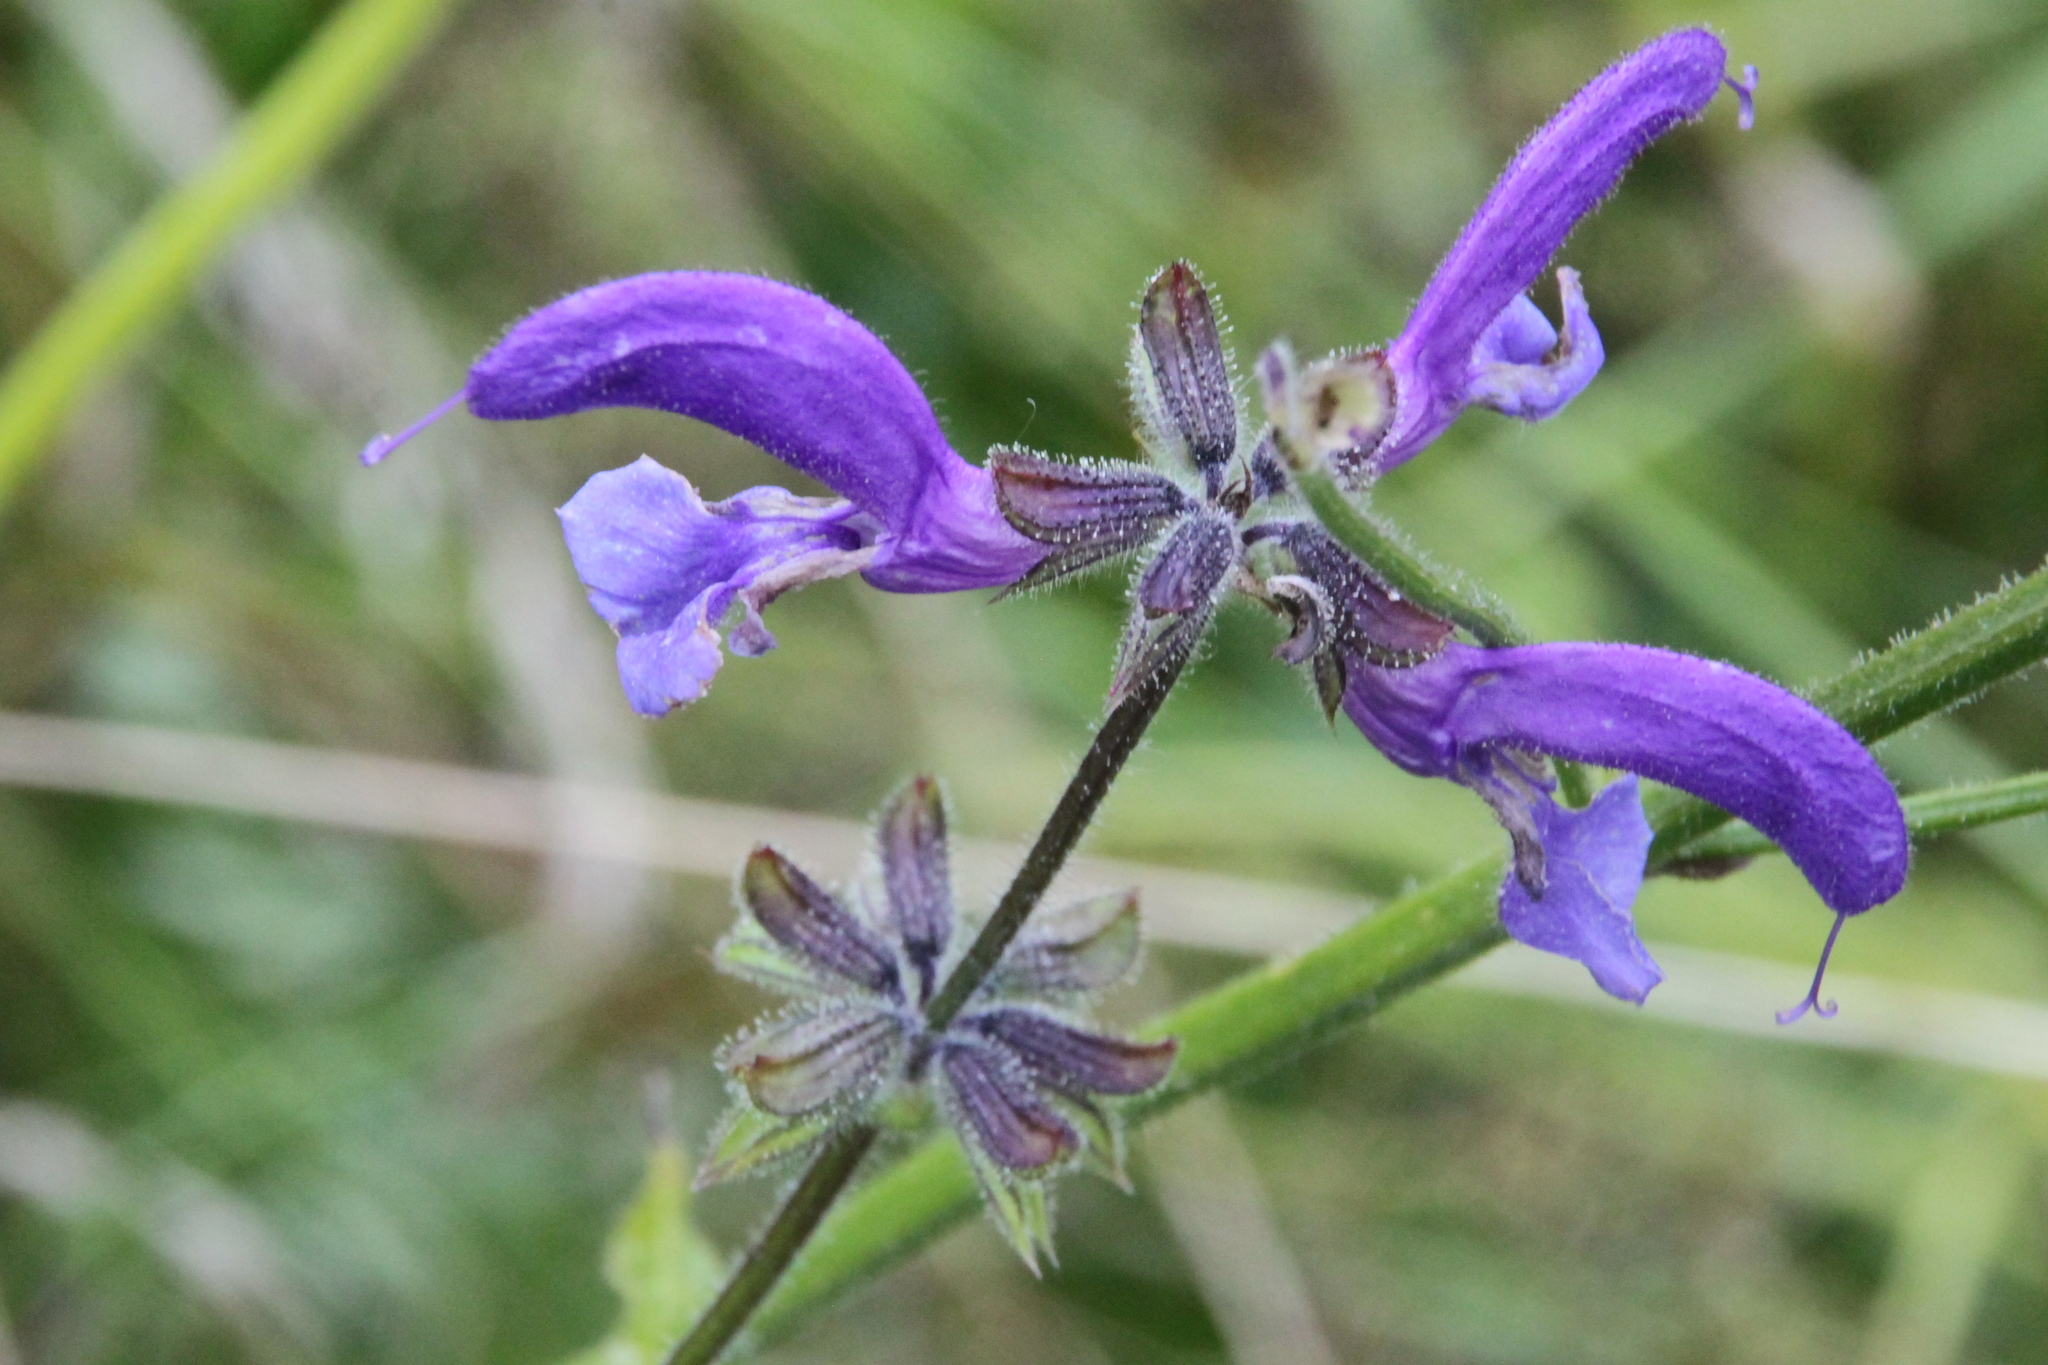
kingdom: Plantae
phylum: Tracheophyta
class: Magnoliopsida
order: Lamiales
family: Lamiaceae
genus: Salvia
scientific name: Salvia pratensis
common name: Meadow sage
